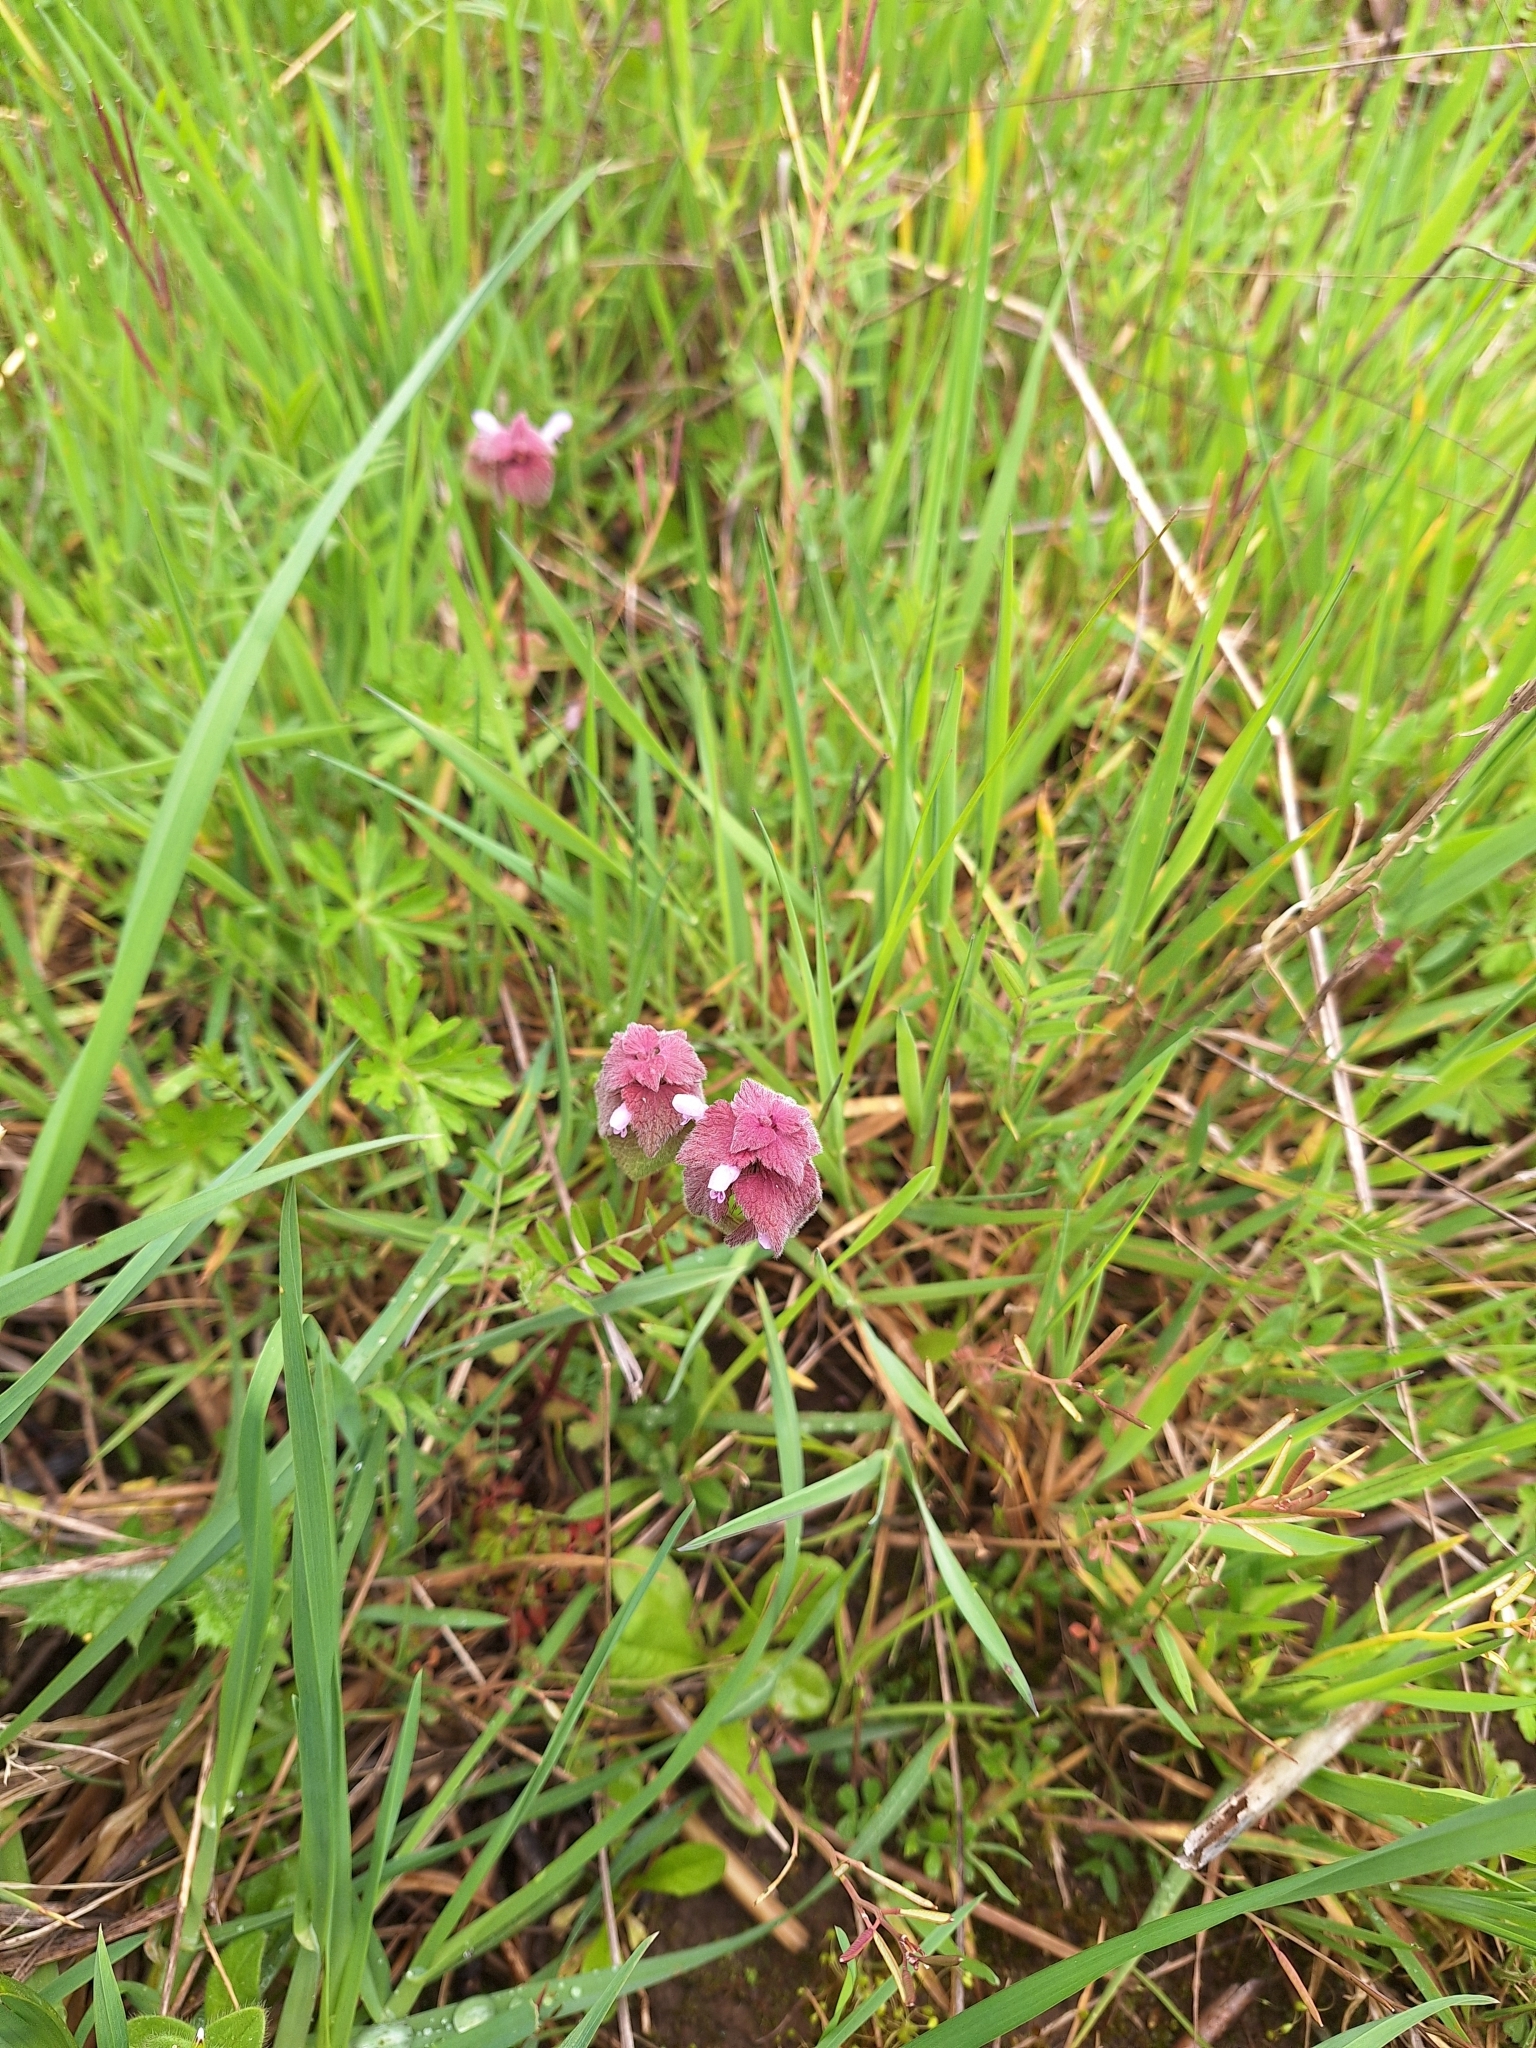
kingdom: Plantae
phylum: Tracheophyta
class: Magnoliopsida
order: Lamiales
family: Lamiaceae
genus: Lamium
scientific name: Lamium purpureum
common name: Red dead-nettle
